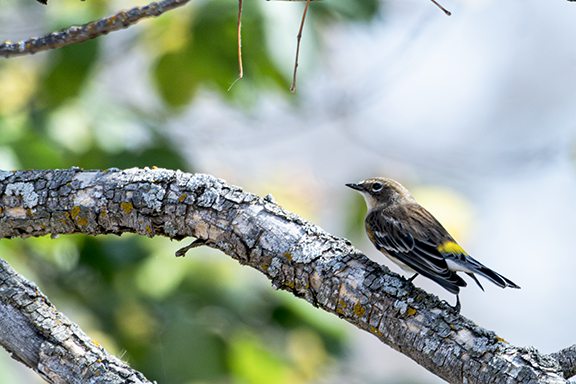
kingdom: Animalia
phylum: Chordata
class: Aves
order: Passeriformes
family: Parulidae
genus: Setophaga
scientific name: Setophaga coronata
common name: Myrtle warbler
